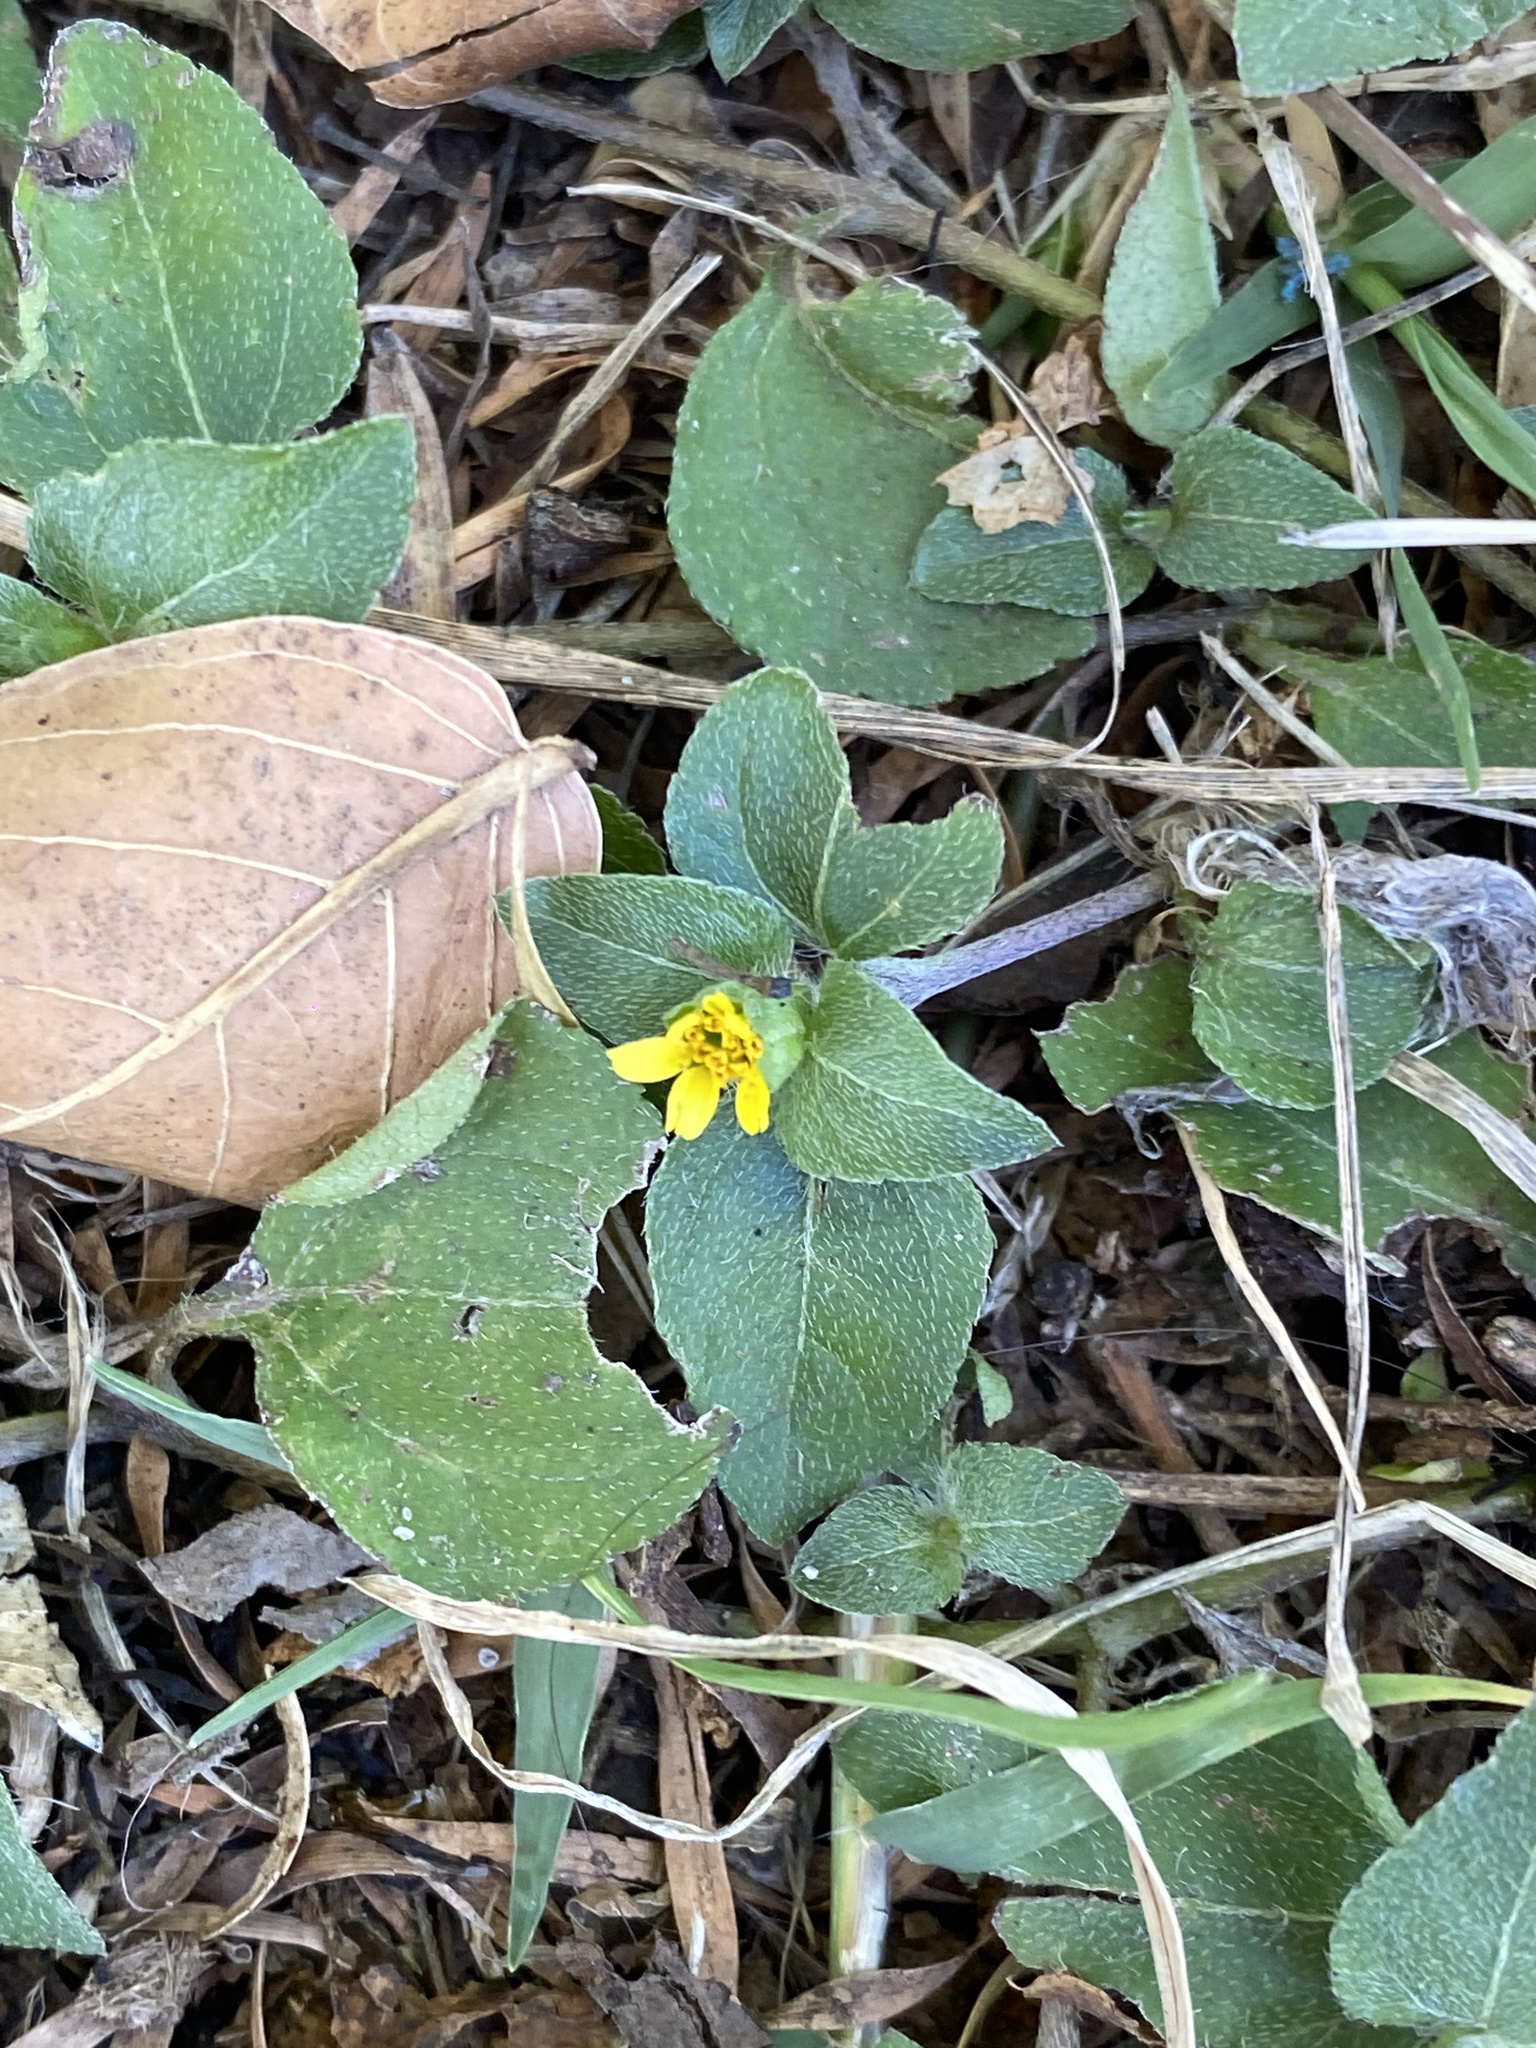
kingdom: Plantae
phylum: Tracheophyta
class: Magnoliopsida
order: Asterales
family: Asteraceae
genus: Calyptocarpus
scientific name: Calyptocarpus vialis
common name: Straggler daisy
